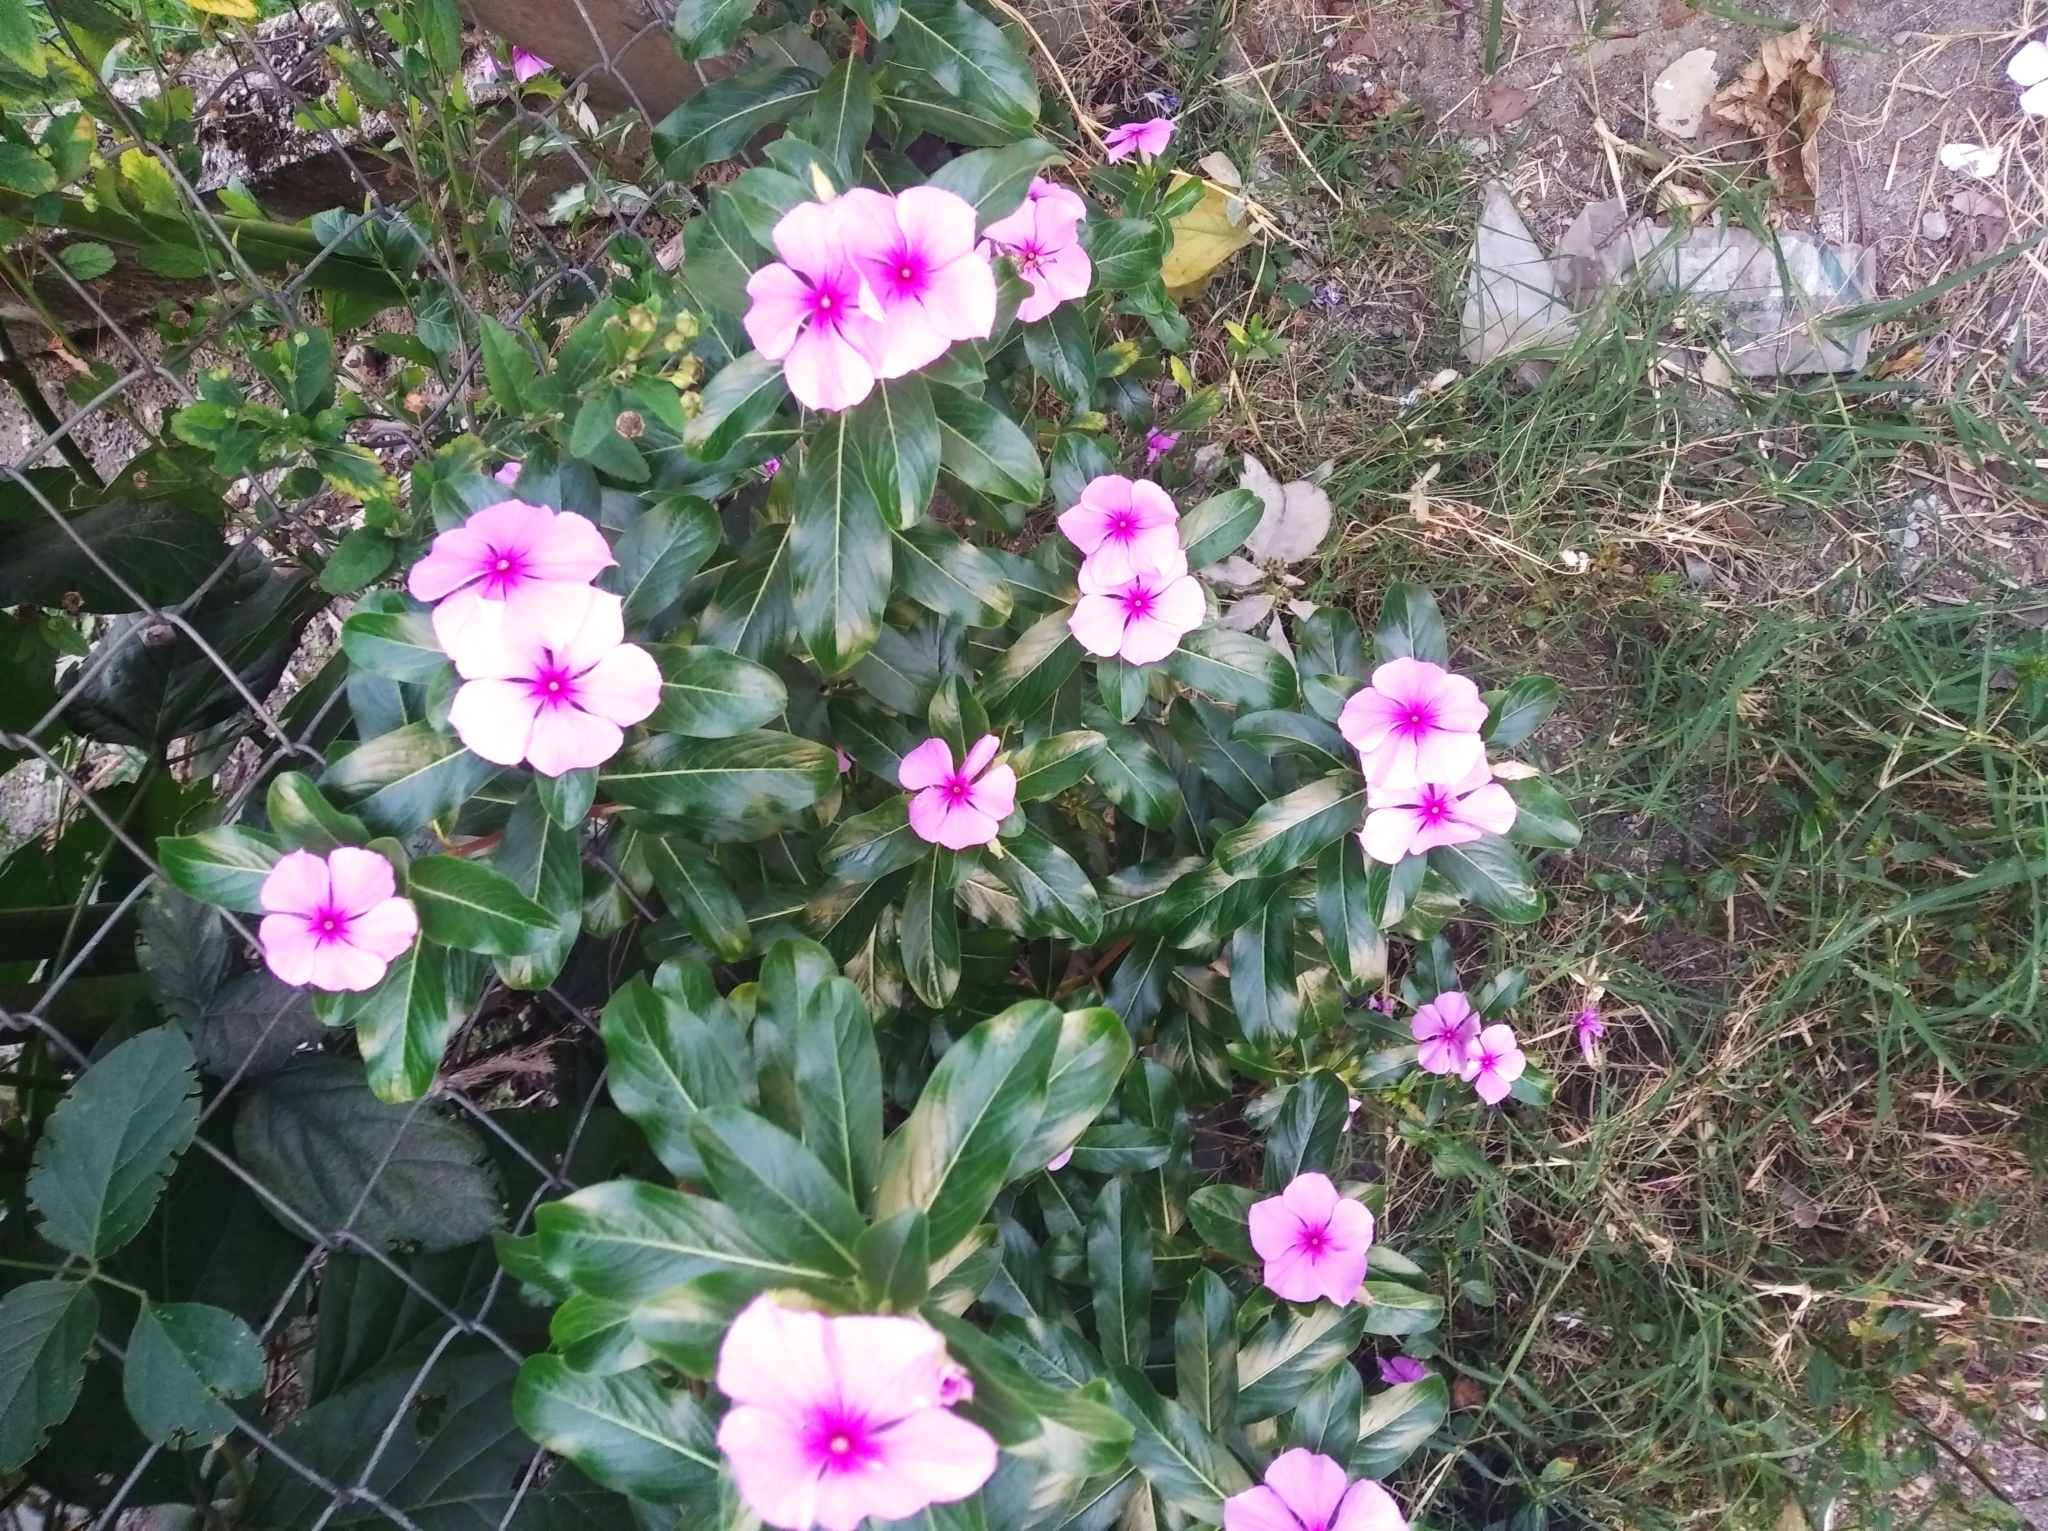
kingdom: Plantae
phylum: Tracheophyta
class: Magnoliopsida
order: Gentianales
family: Apocynaceae
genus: Catharanthus
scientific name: Catharanthus roseus
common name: Madagascar periwinkle
